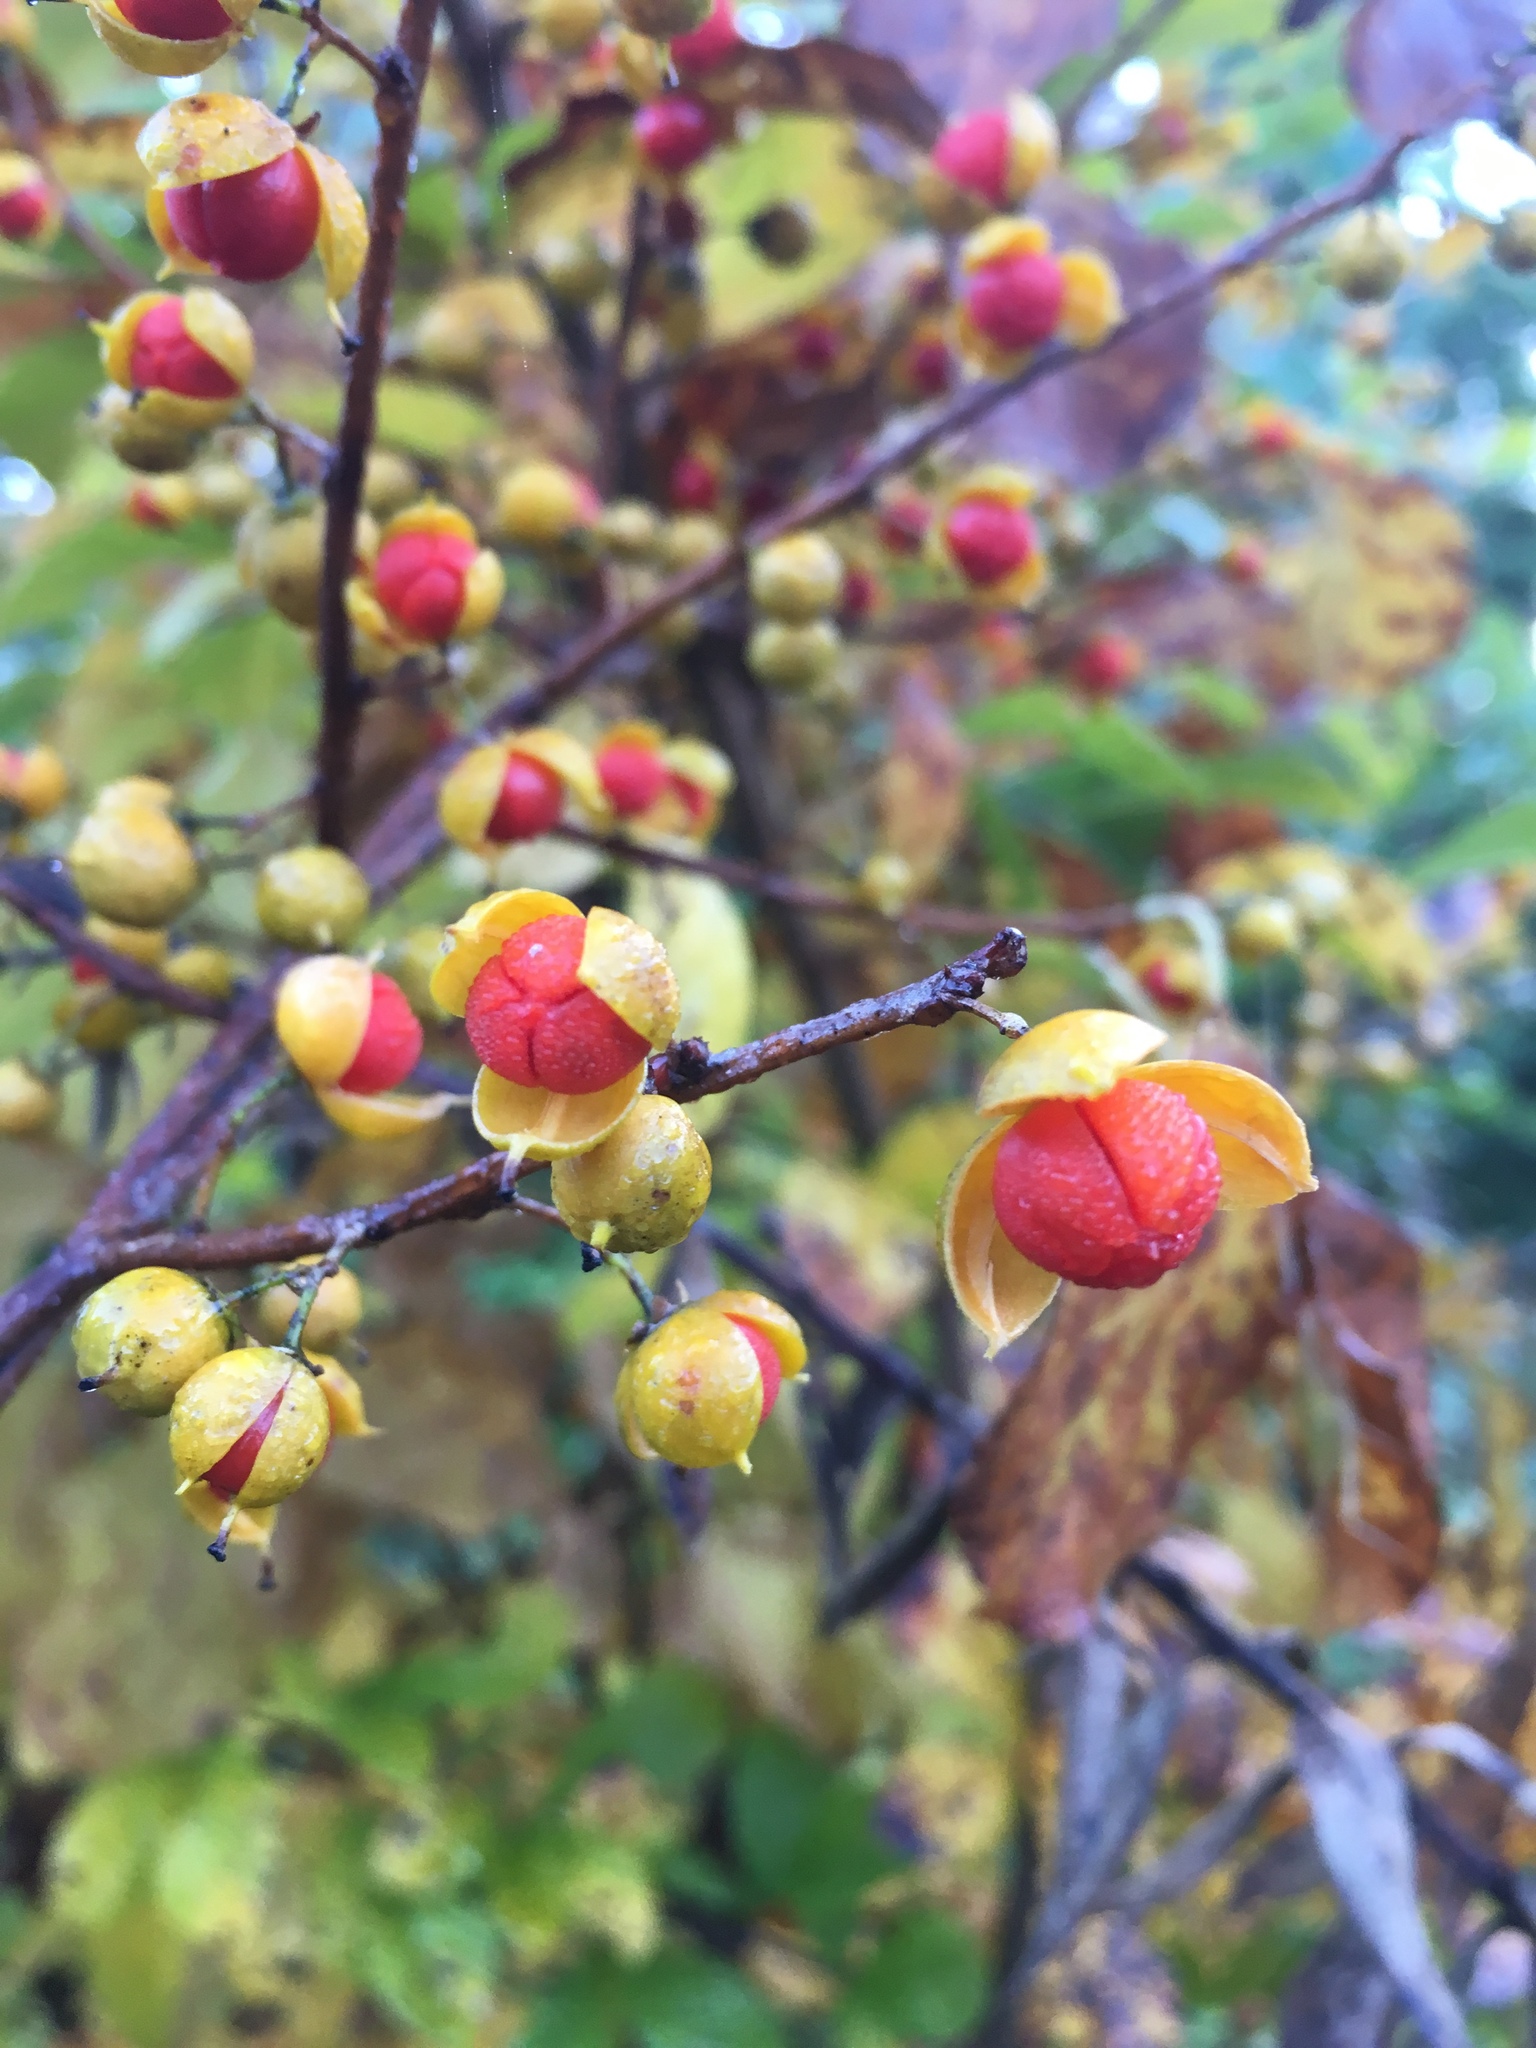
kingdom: Plantae
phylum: Tracheophyta
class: Magnoliopsida
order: Celastrales
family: Celastraceae
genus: Celastrus
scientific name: Celastrus orbiculatus
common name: Oriental bittersweet
